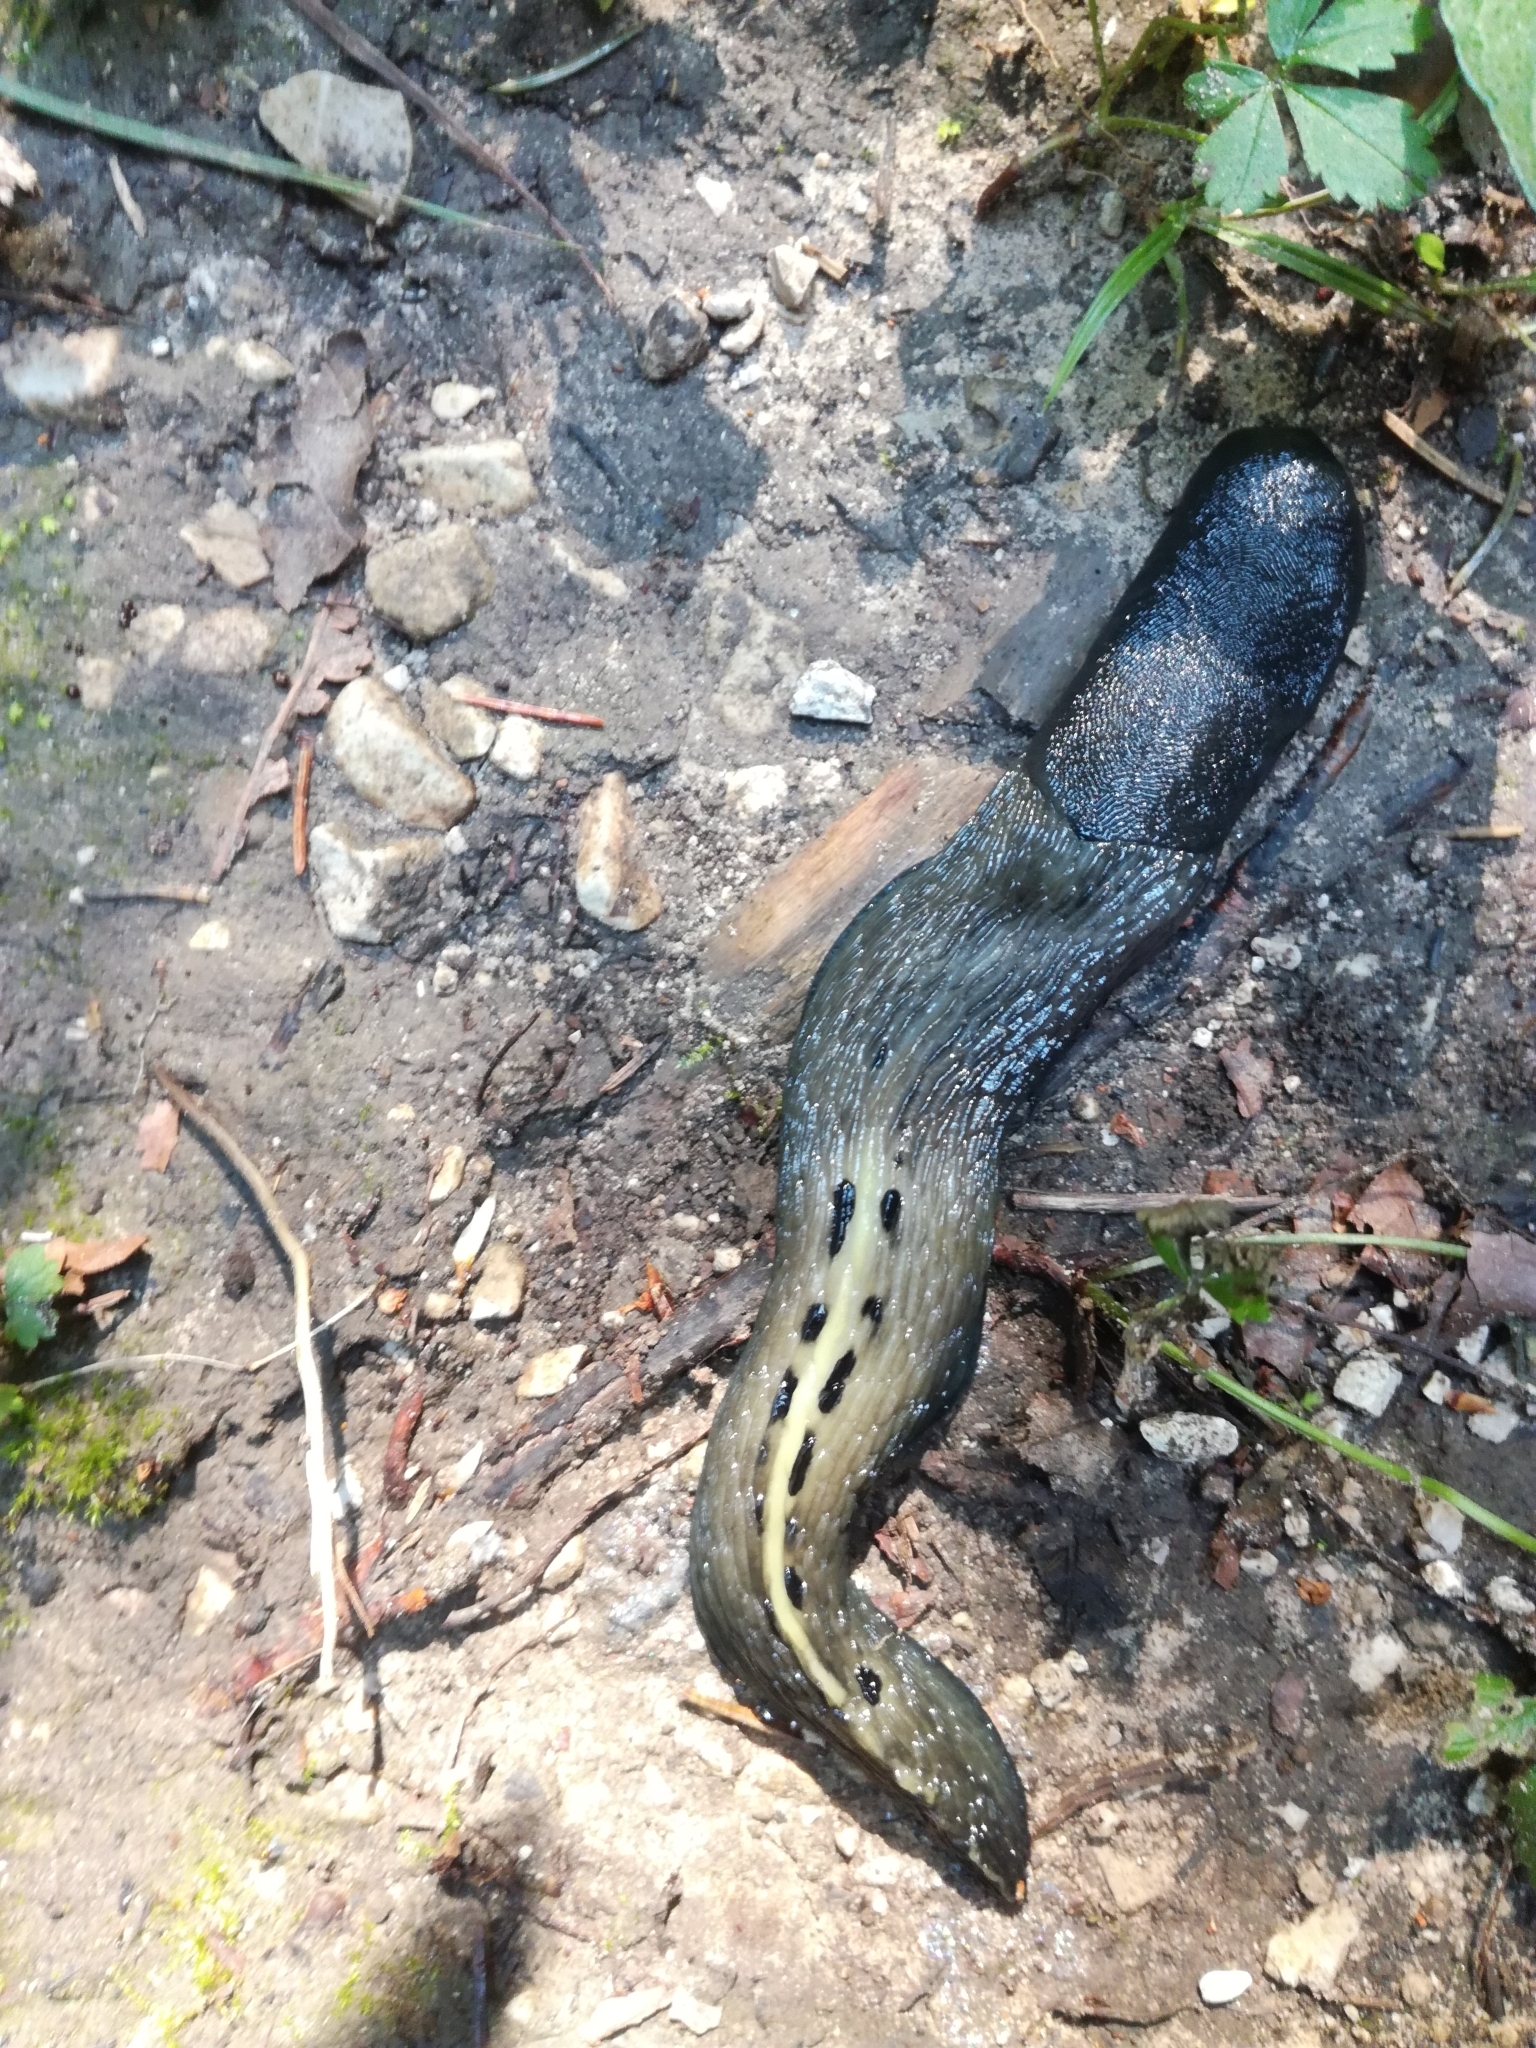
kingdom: Animalia
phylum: Mollusca
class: Gastropoda
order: Stylommatophora
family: Limacidae
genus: Limax
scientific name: Limax cinereoniger
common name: Ash-black slug
